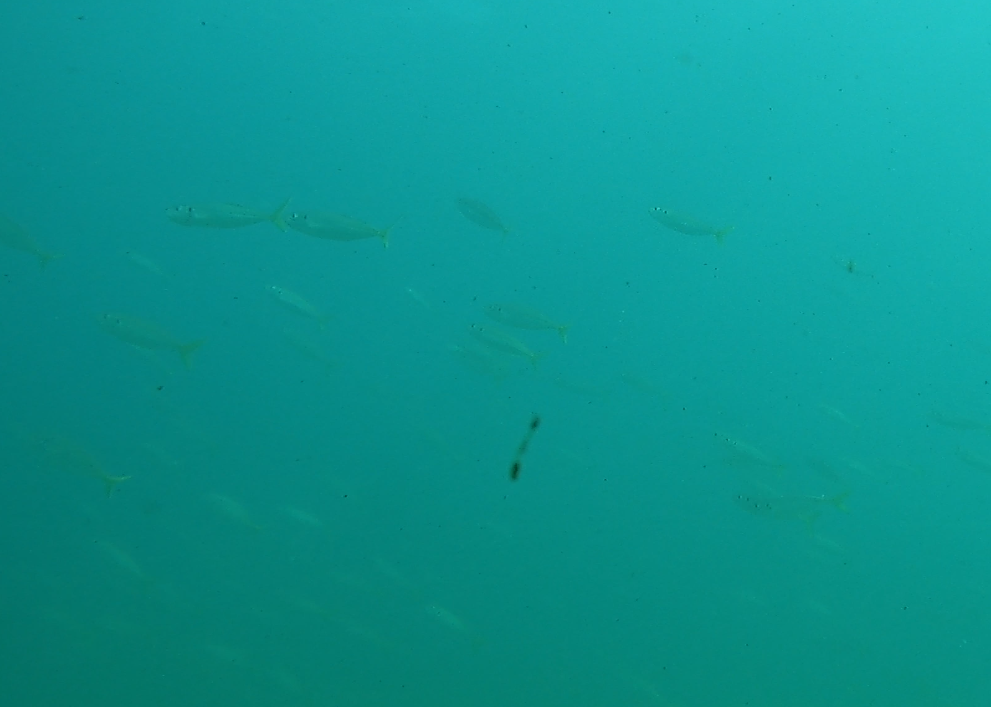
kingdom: Animalia
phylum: Chordata
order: Perciformes
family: Carangidae
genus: Trachurus
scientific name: Trachurus novaezelandiae
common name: Yellowtail horse mackerel
